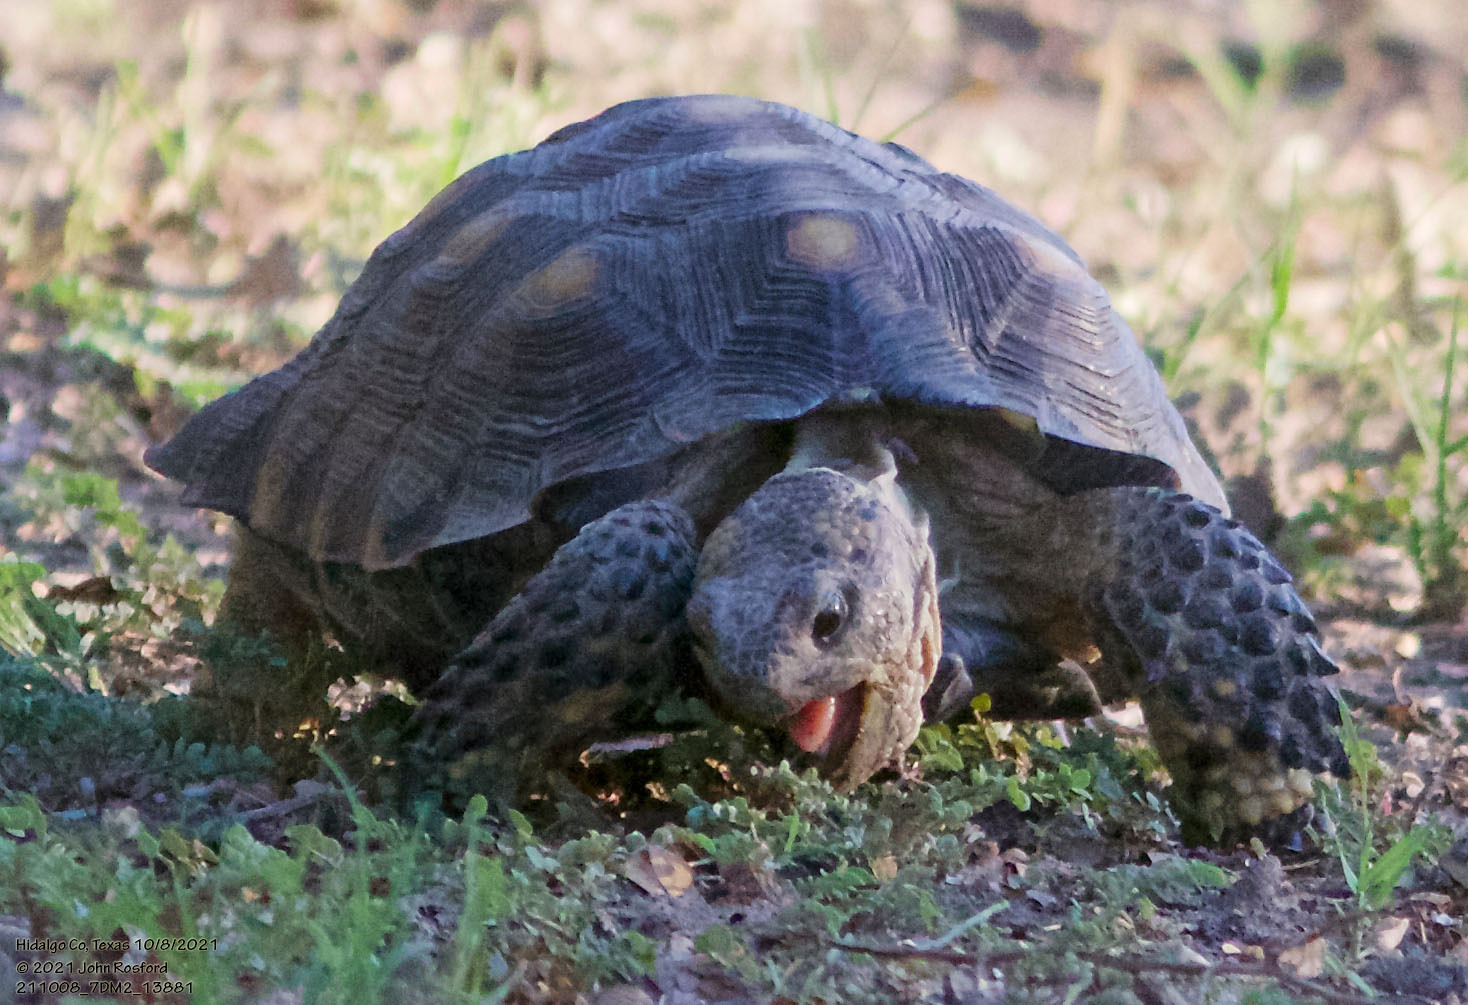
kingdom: Animalia
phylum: Chordata
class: Testudines
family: Testudinidae
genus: Gopherus
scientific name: Gopherus berlandieri
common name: Texas (gopher )tortoise
